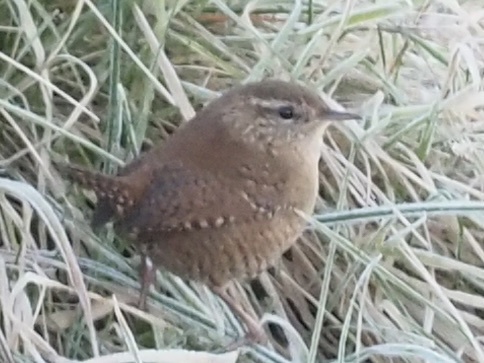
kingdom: Animalia
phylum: Chordata
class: Aves
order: Passeriformes
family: Troglodytidae
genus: Troglodytes
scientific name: Troglodytes troglodytes
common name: Eurasian wren
